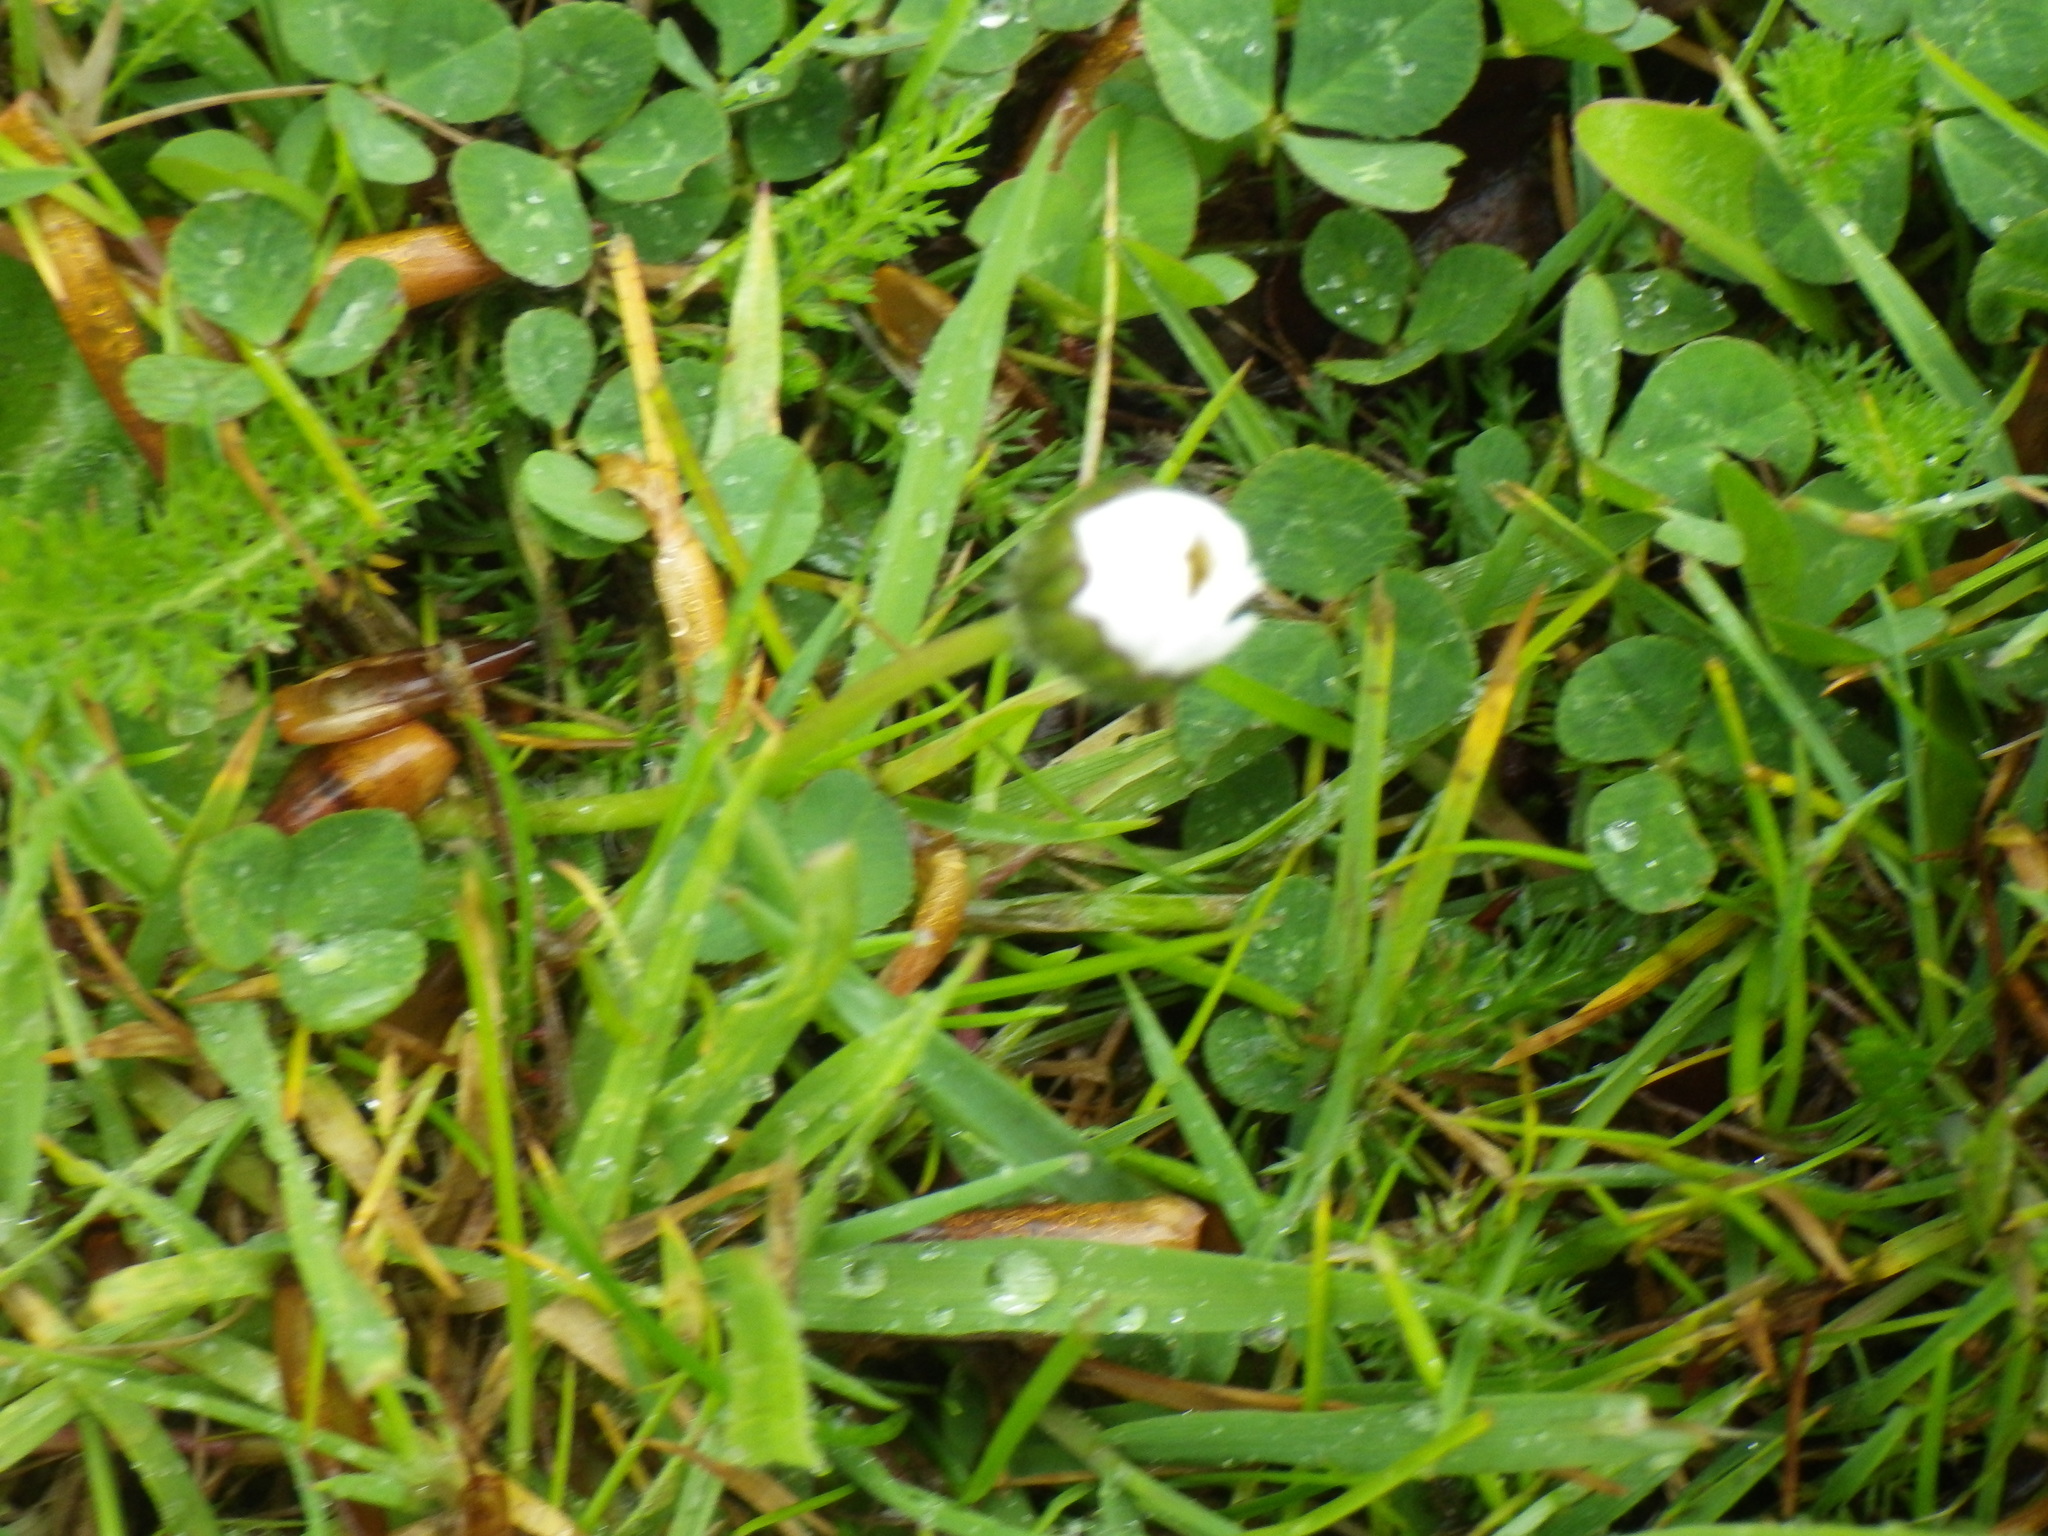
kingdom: Plantae
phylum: Tracheophyta
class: Magnoliopsida
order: Asterales
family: Asteraceae
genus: Bellis
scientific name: Bellis perennis
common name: Lawndaisy
